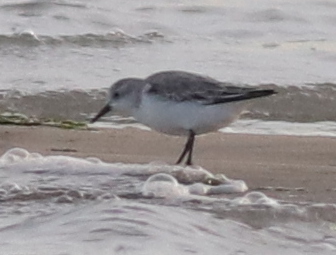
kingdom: Animalia
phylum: Chordata
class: Aves
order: Charadriiformes
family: Scolopacidae
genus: Calidris
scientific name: Calidris alba
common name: Sanderling
